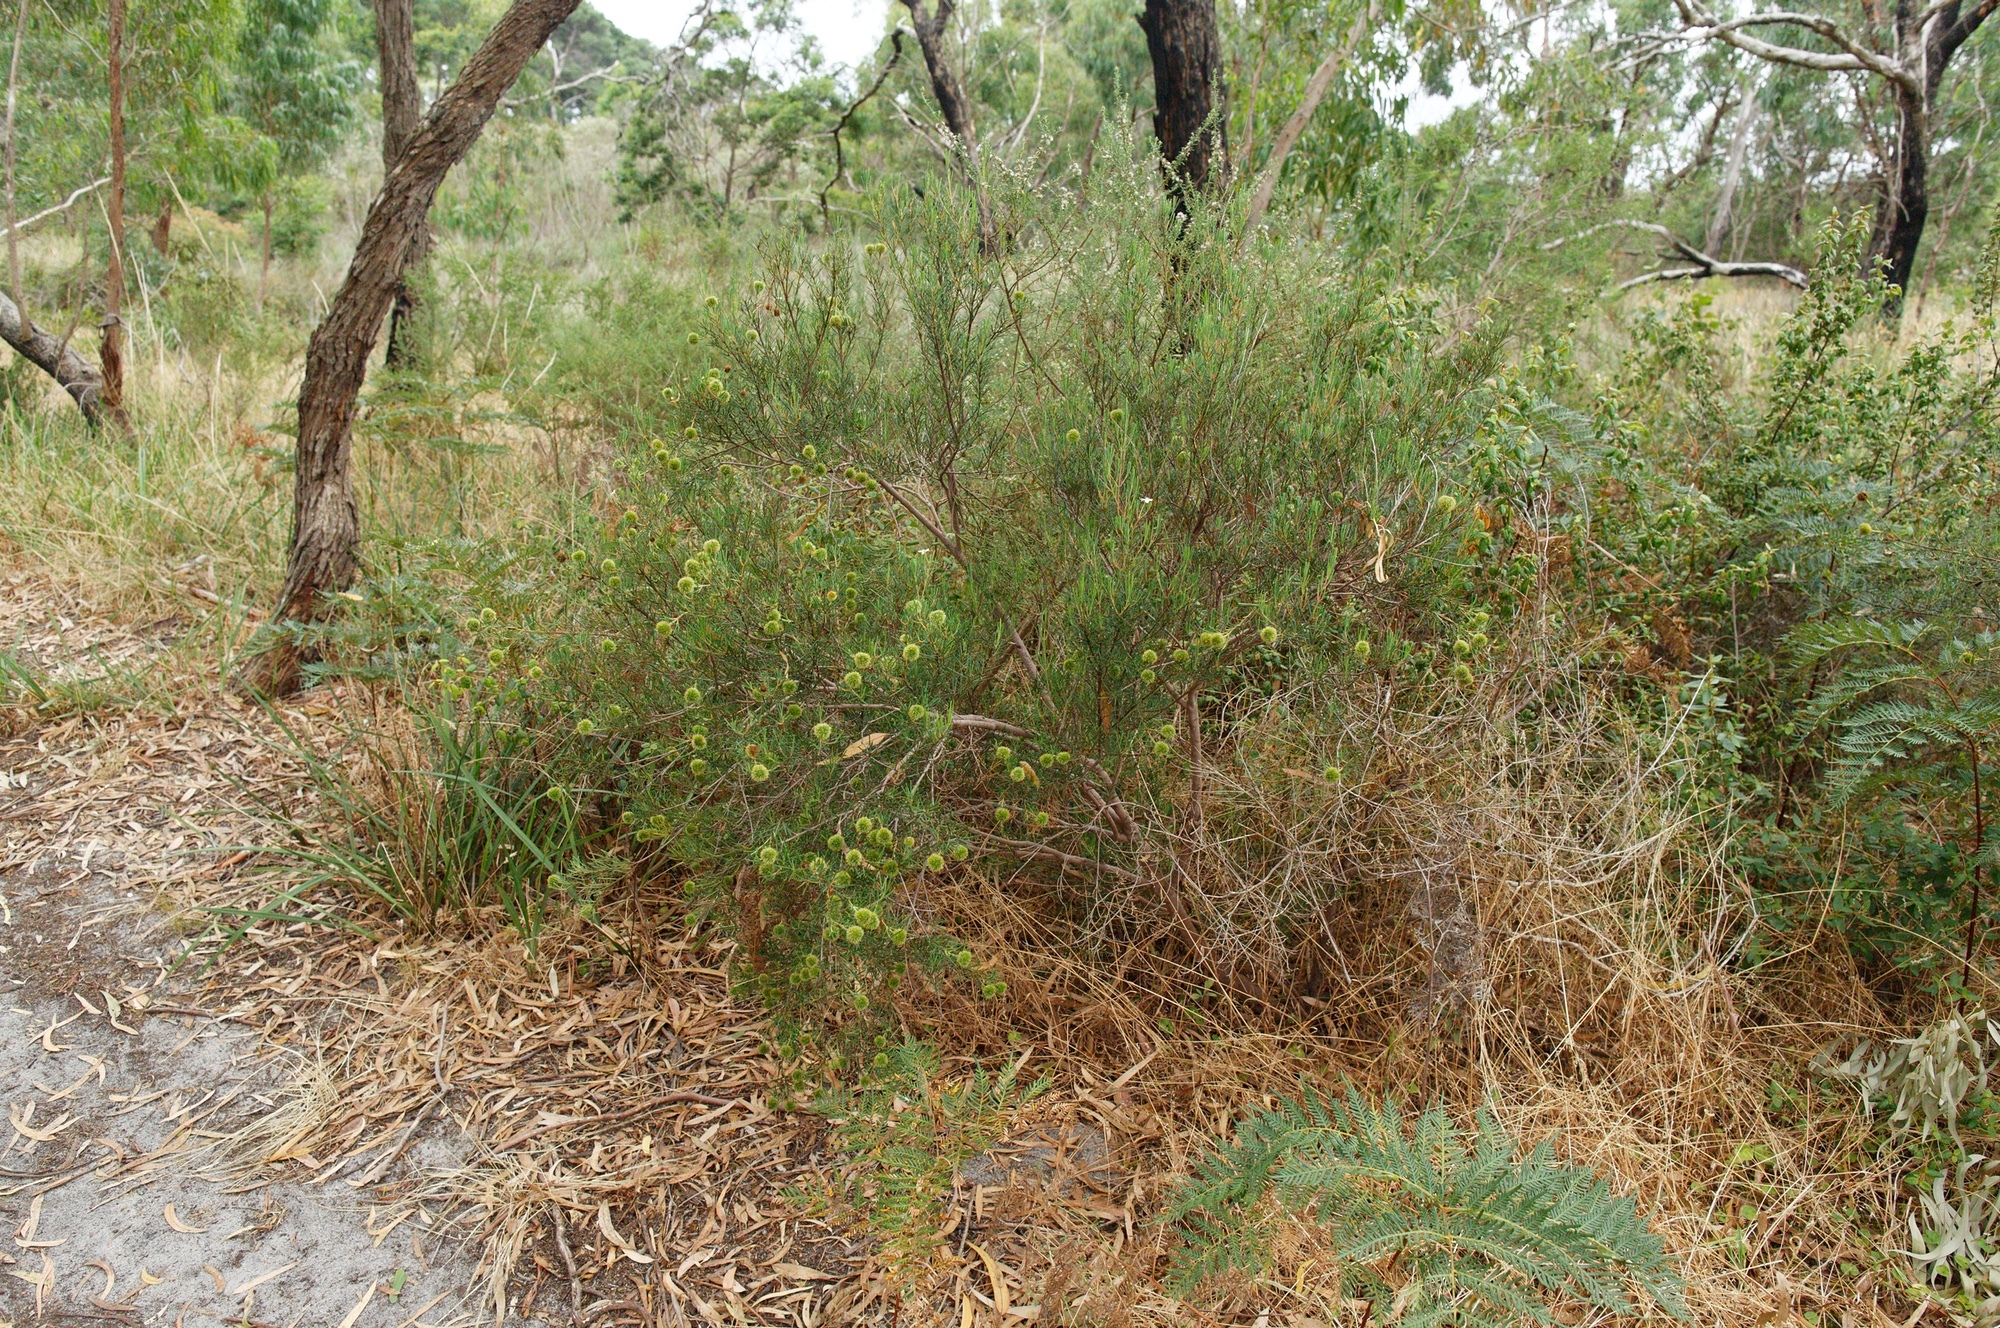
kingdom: Plantae
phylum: Tracheophyta
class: Magnoliopsida
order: Malpighiales
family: Euphorbiaceae
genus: Ricinocarpos
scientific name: Ricinocarpos pinifolius
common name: Weddingbush
